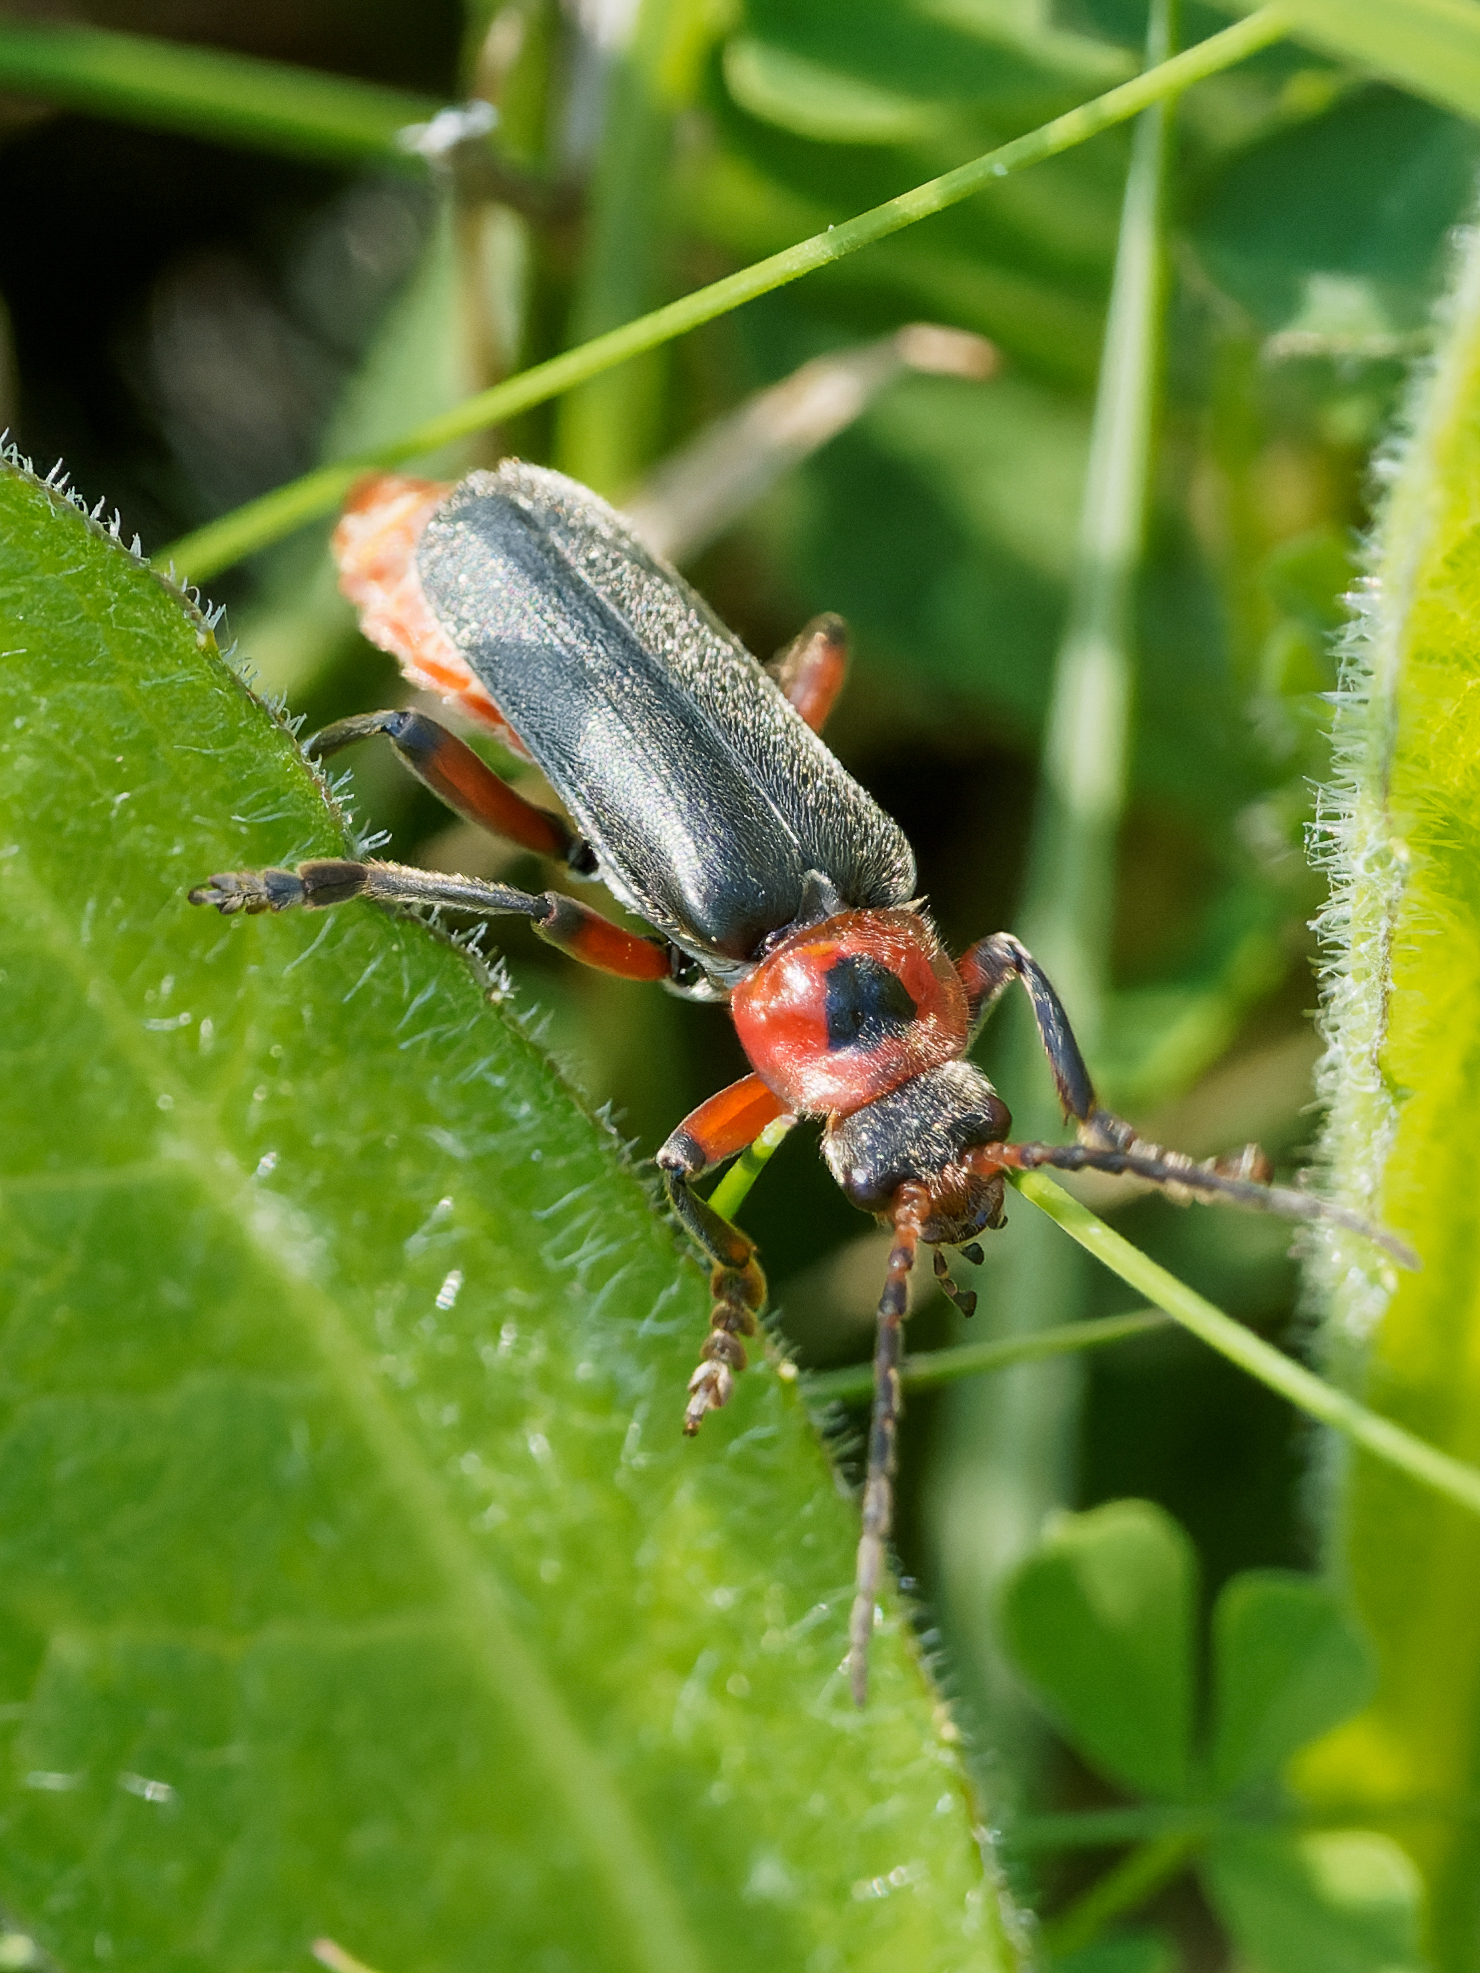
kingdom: Animalia
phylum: Arthropoda
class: Insecta
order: Coleoptera
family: Cantharidae
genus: Cantharis
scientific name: Cantharis rustica
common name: Soldier beetle
